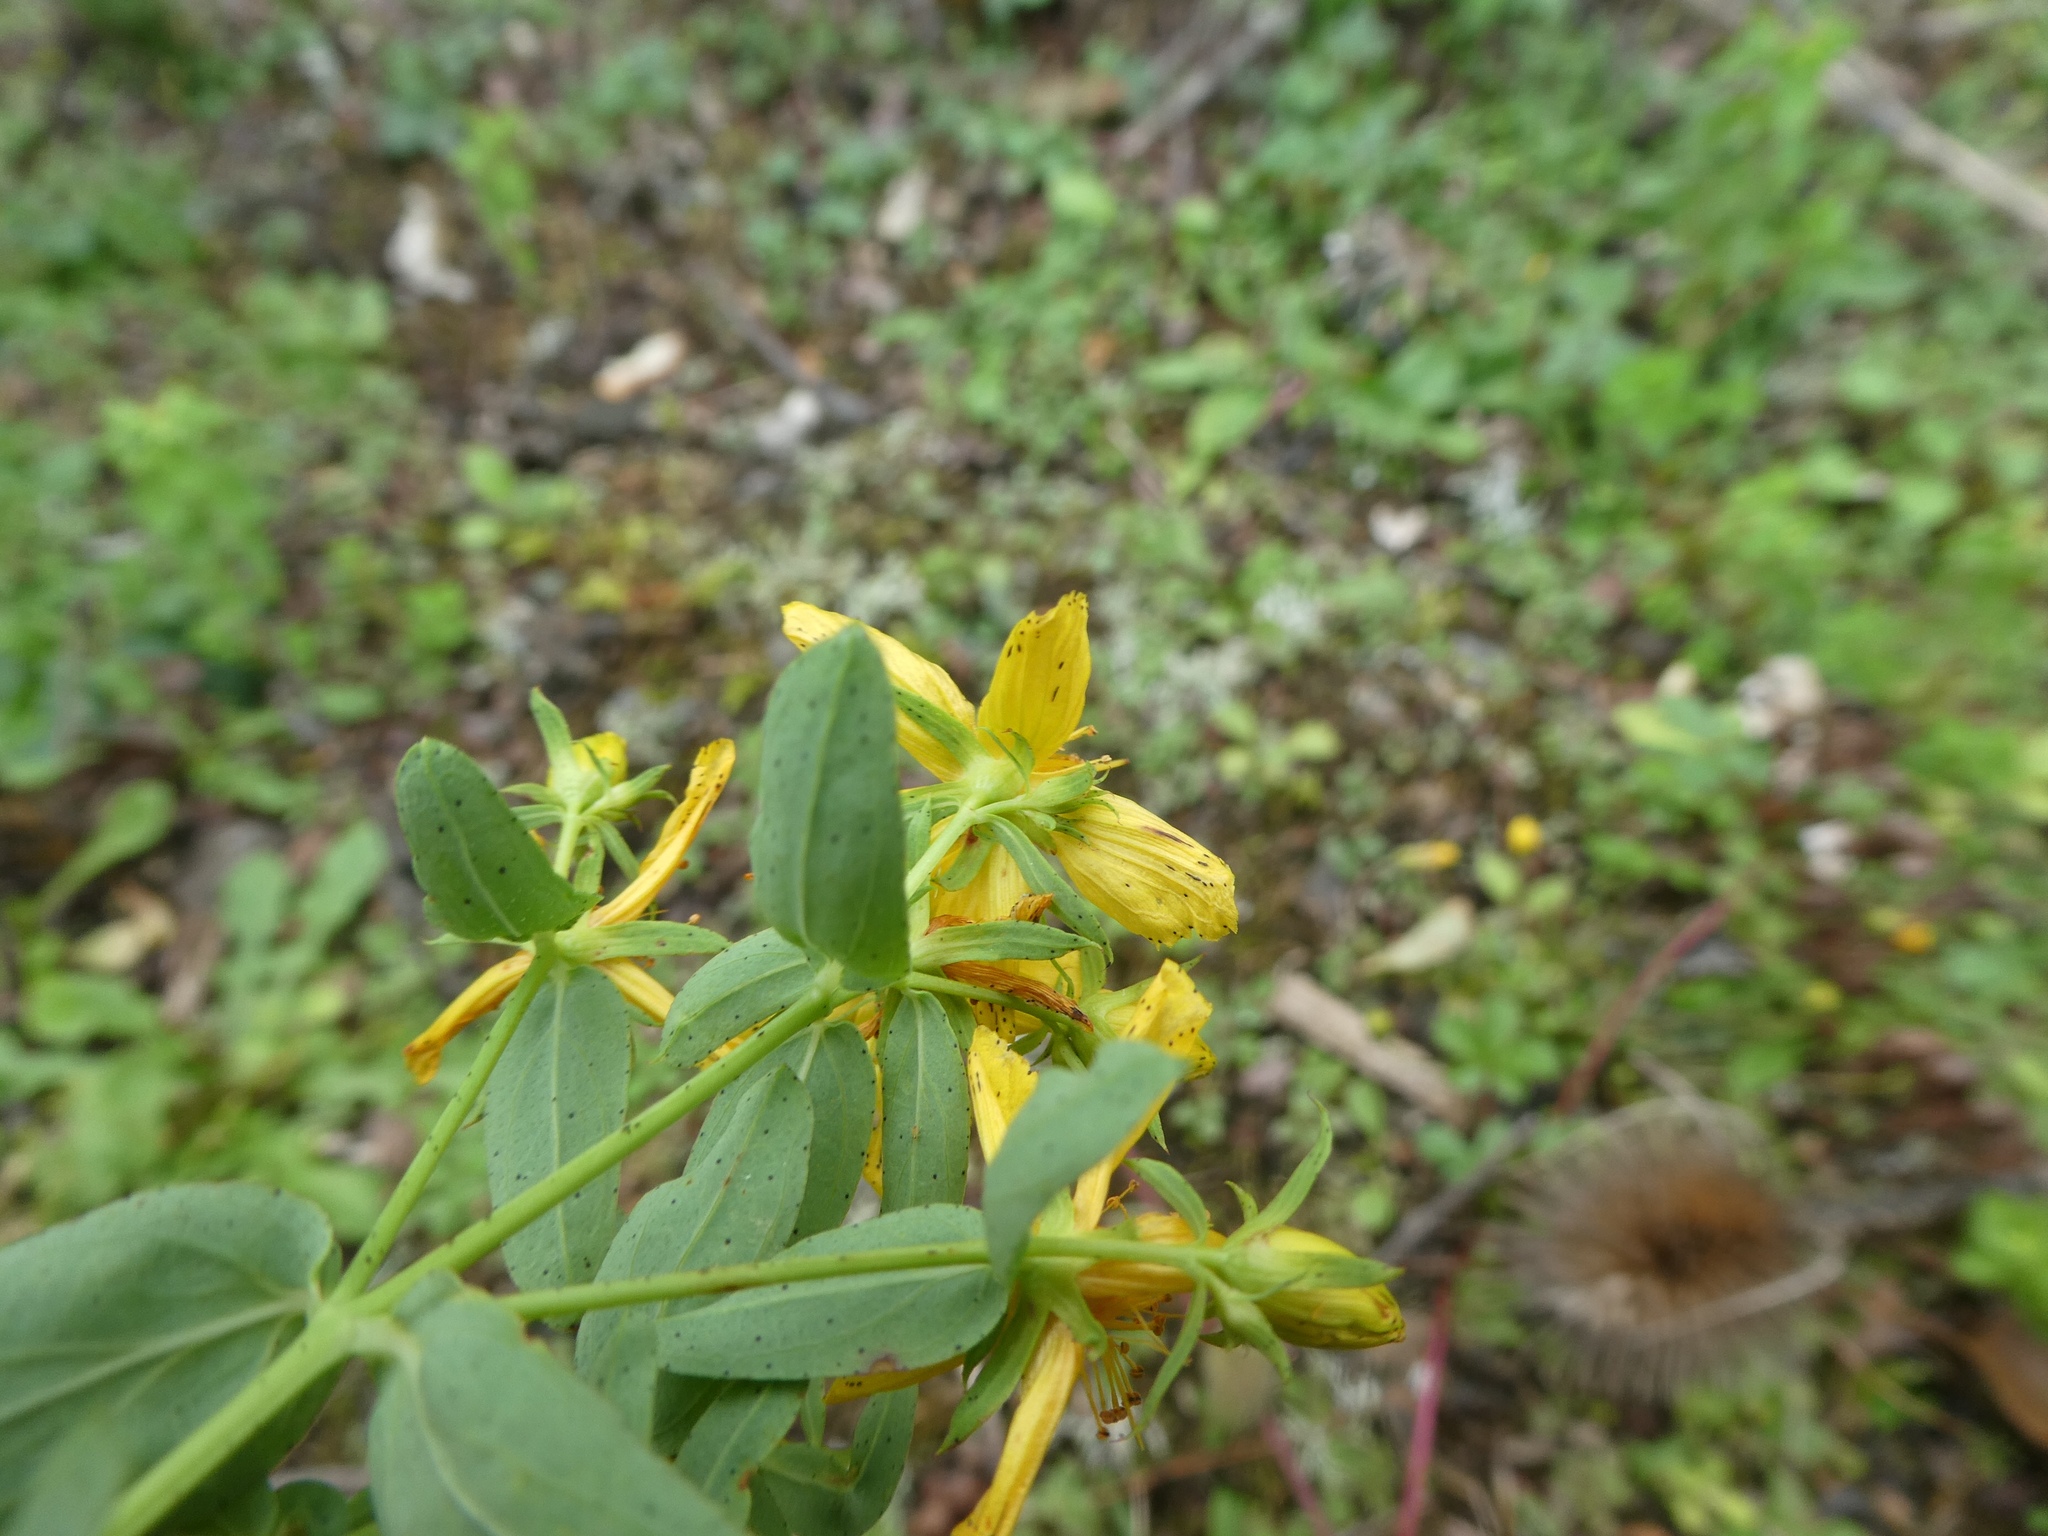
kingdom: Plantae
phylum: Tracheophyta
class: Magnoliopsida
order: Malpighiales
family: Hypericaceae
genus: Hypericum
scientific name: Hypericum perforatum
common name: Common st. johnswort
